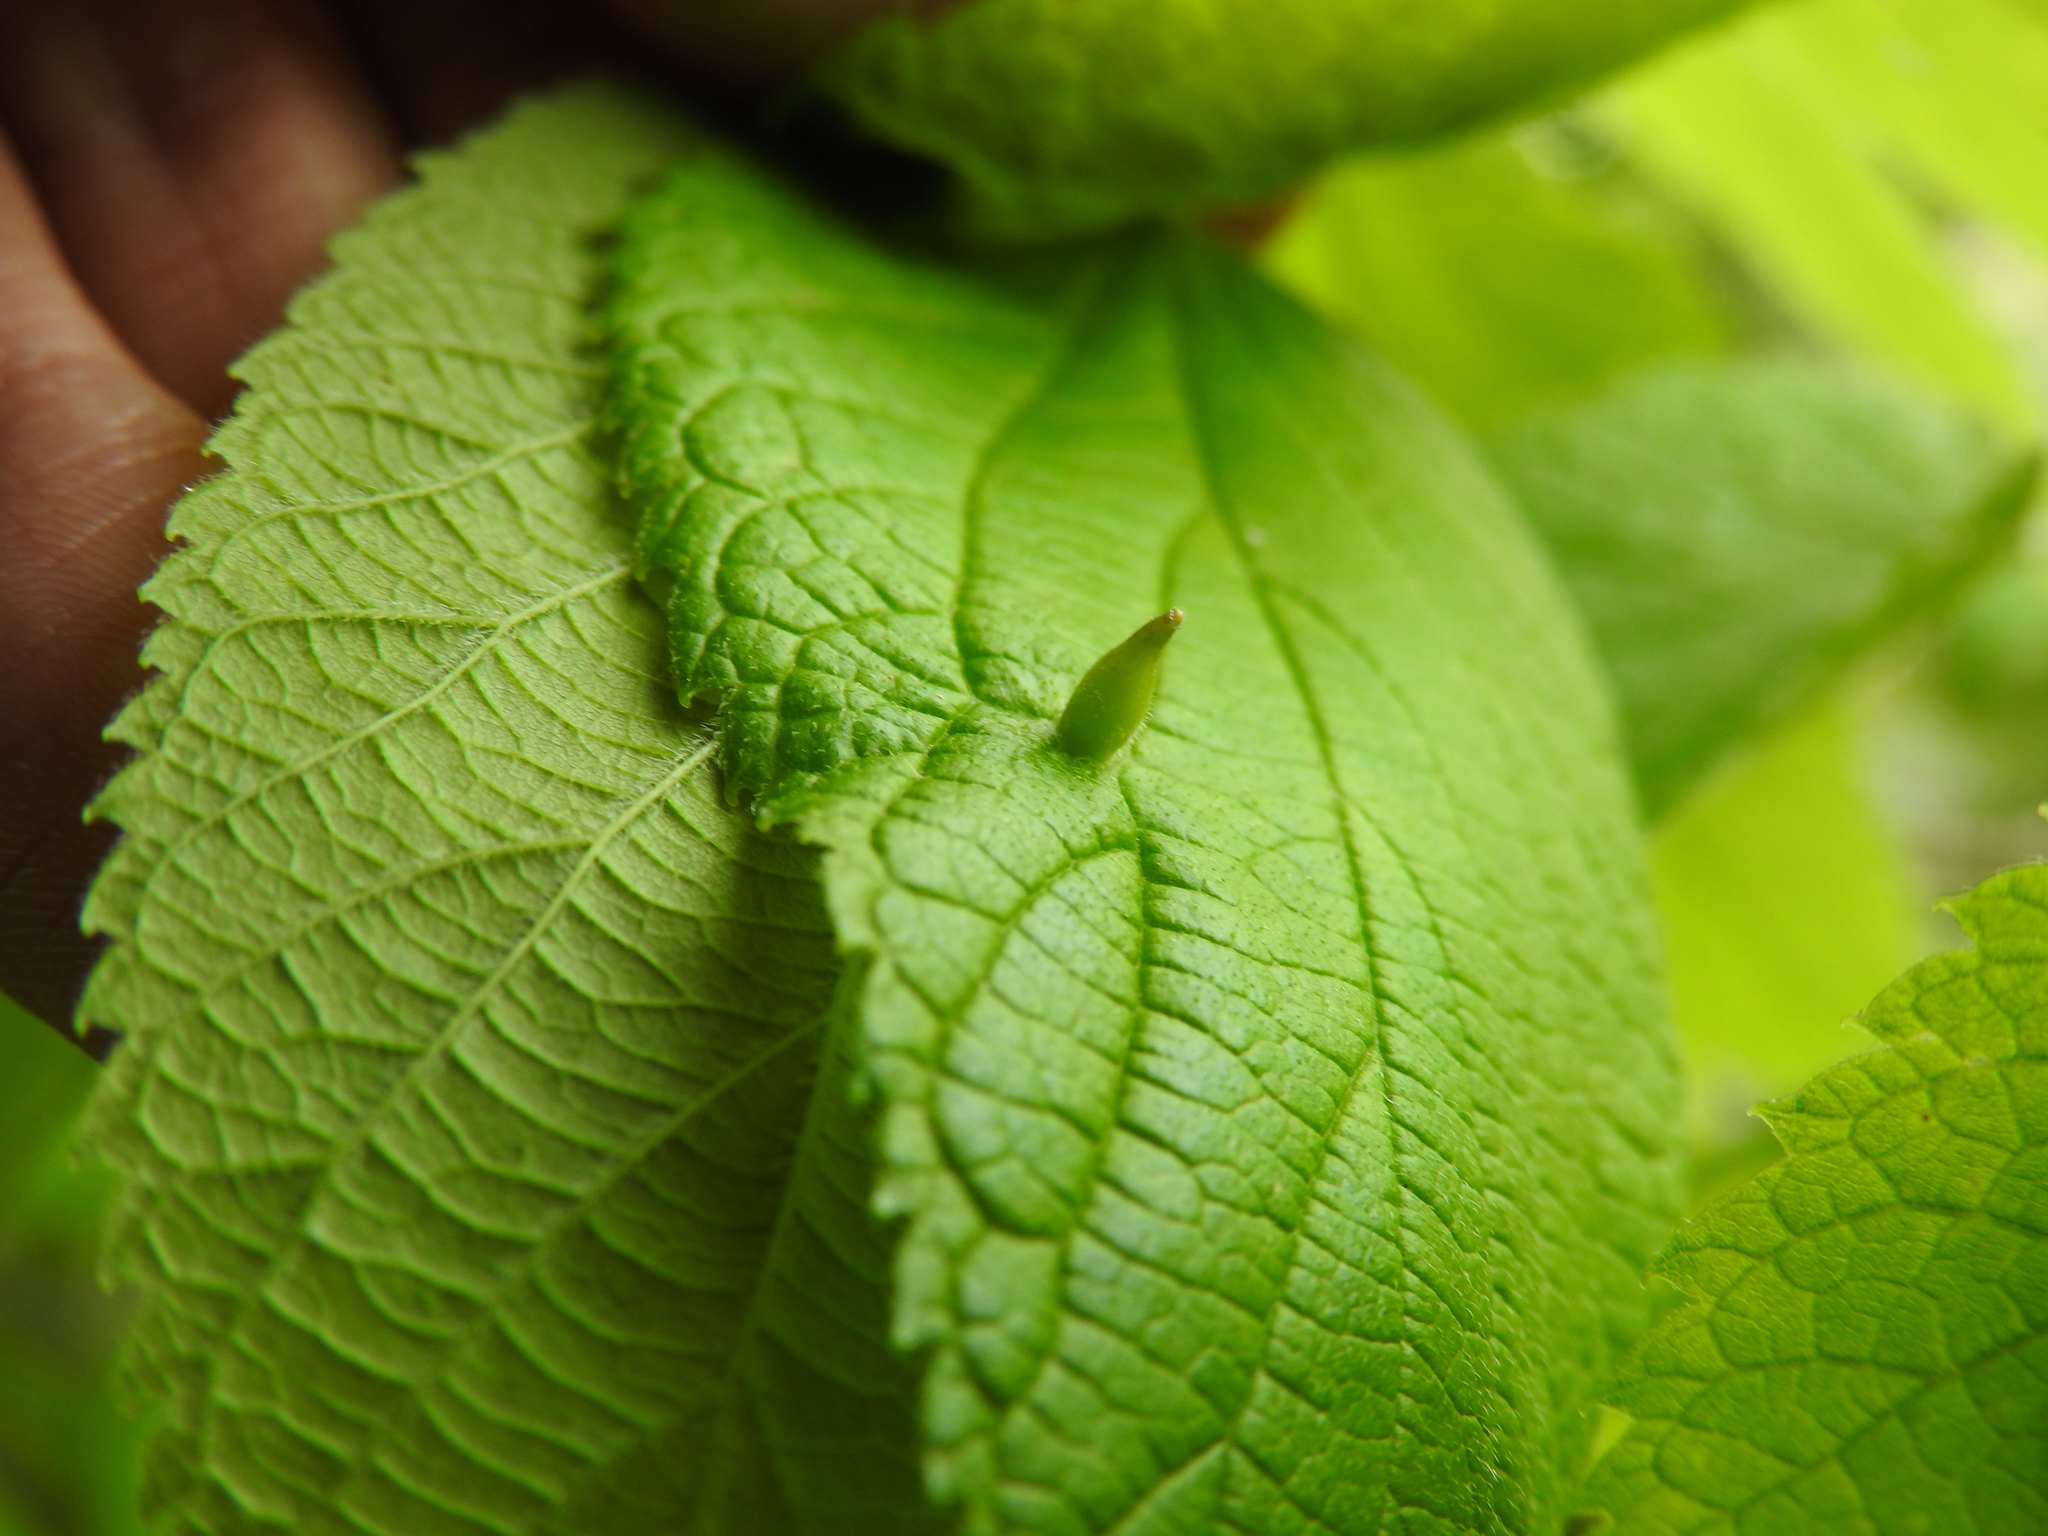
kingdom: Animalia
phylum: Arthropoda
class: Insecta
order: Diptera
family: Cecidomyiidae
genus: Celticecis
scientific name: Celticecis ovata
